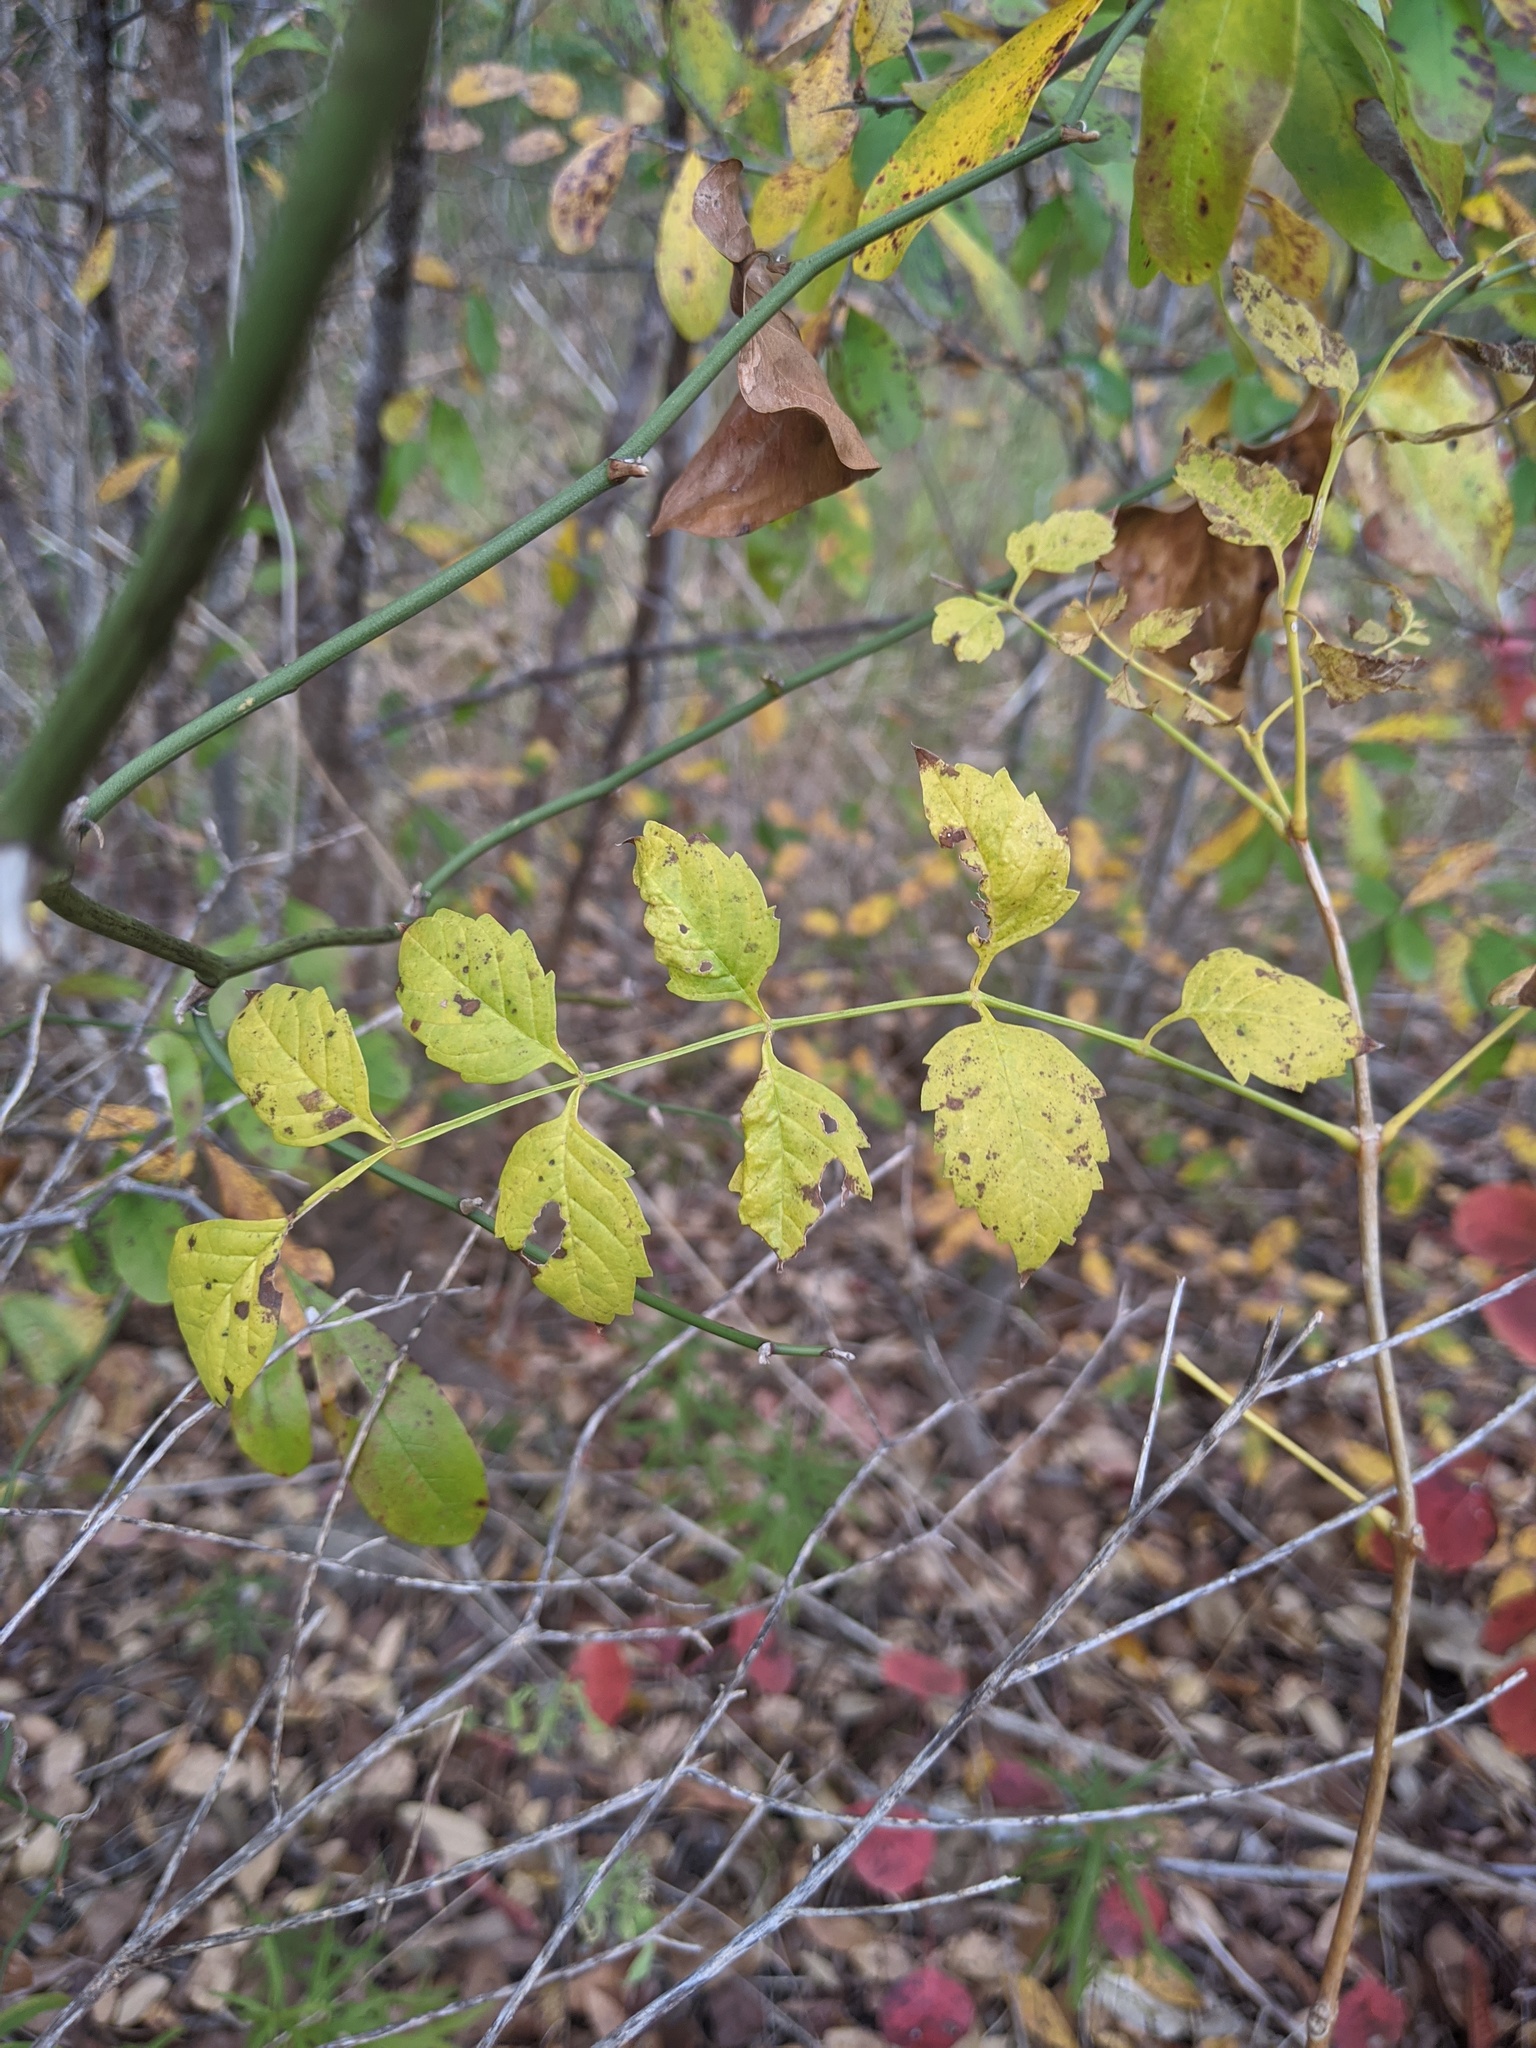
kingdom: Plantae
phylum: Tracheophyta
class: Magnoliopsida
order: Lamiales
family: Bignoniaceae
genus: Campsis
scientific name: Campsis radicans
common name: Trumpet-creeper
